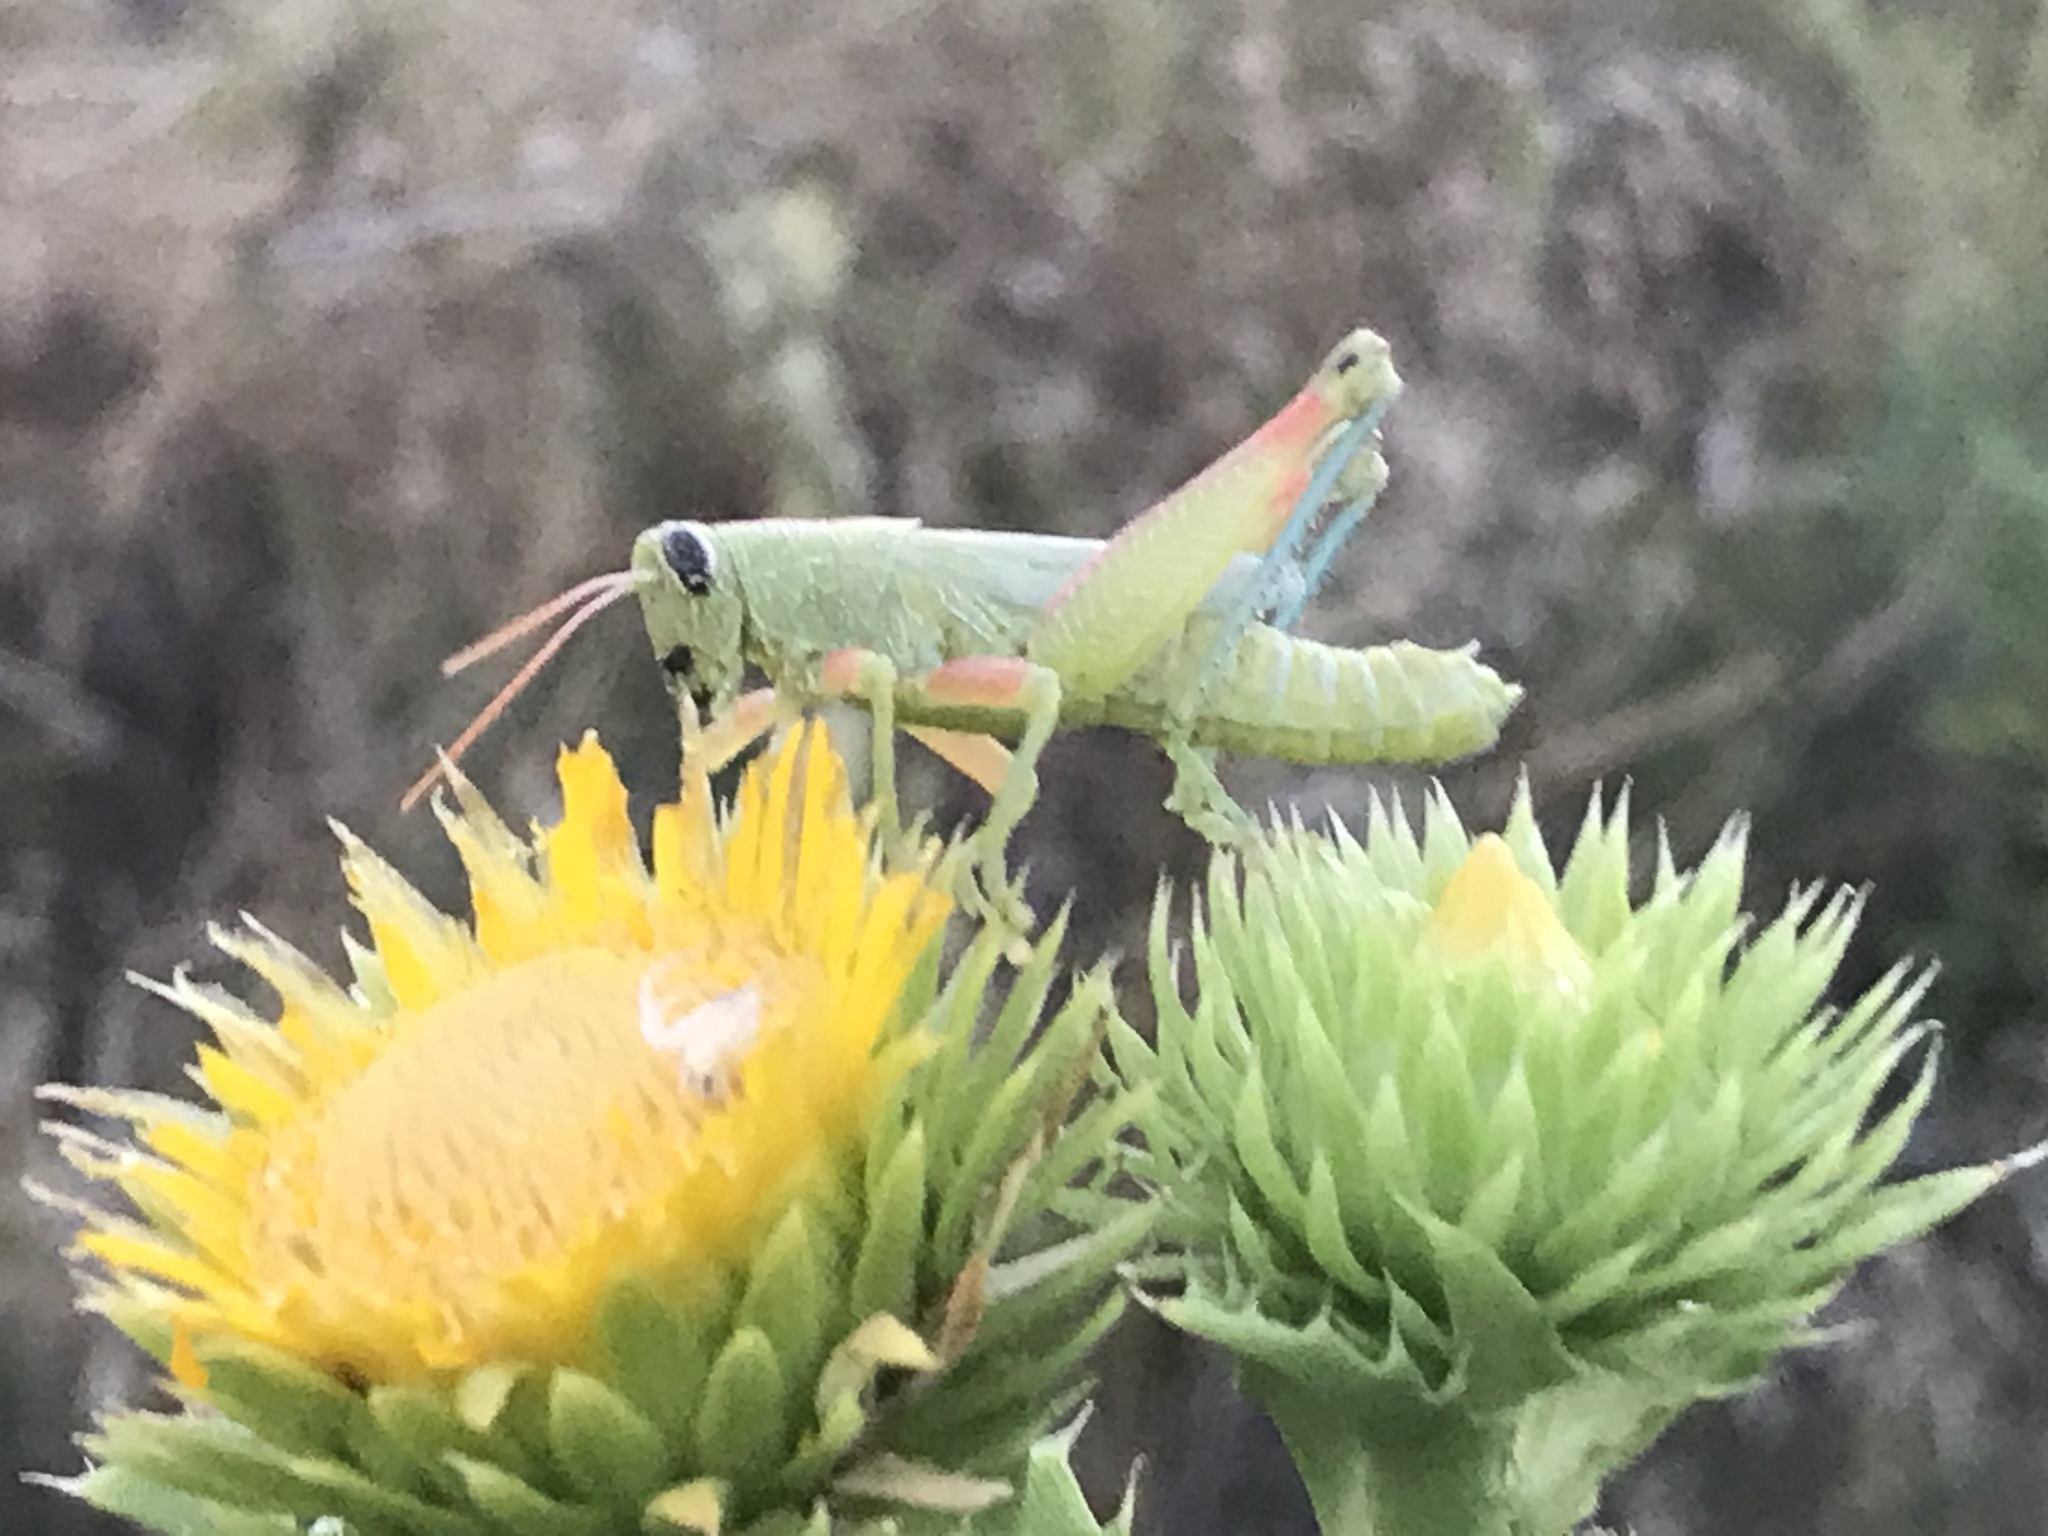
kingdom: Animalia
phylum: Arthropoda
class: Insecta
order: Orthoptera
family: Acrididae
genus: Hesperotettix
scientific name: Hesperotettix speciosus
